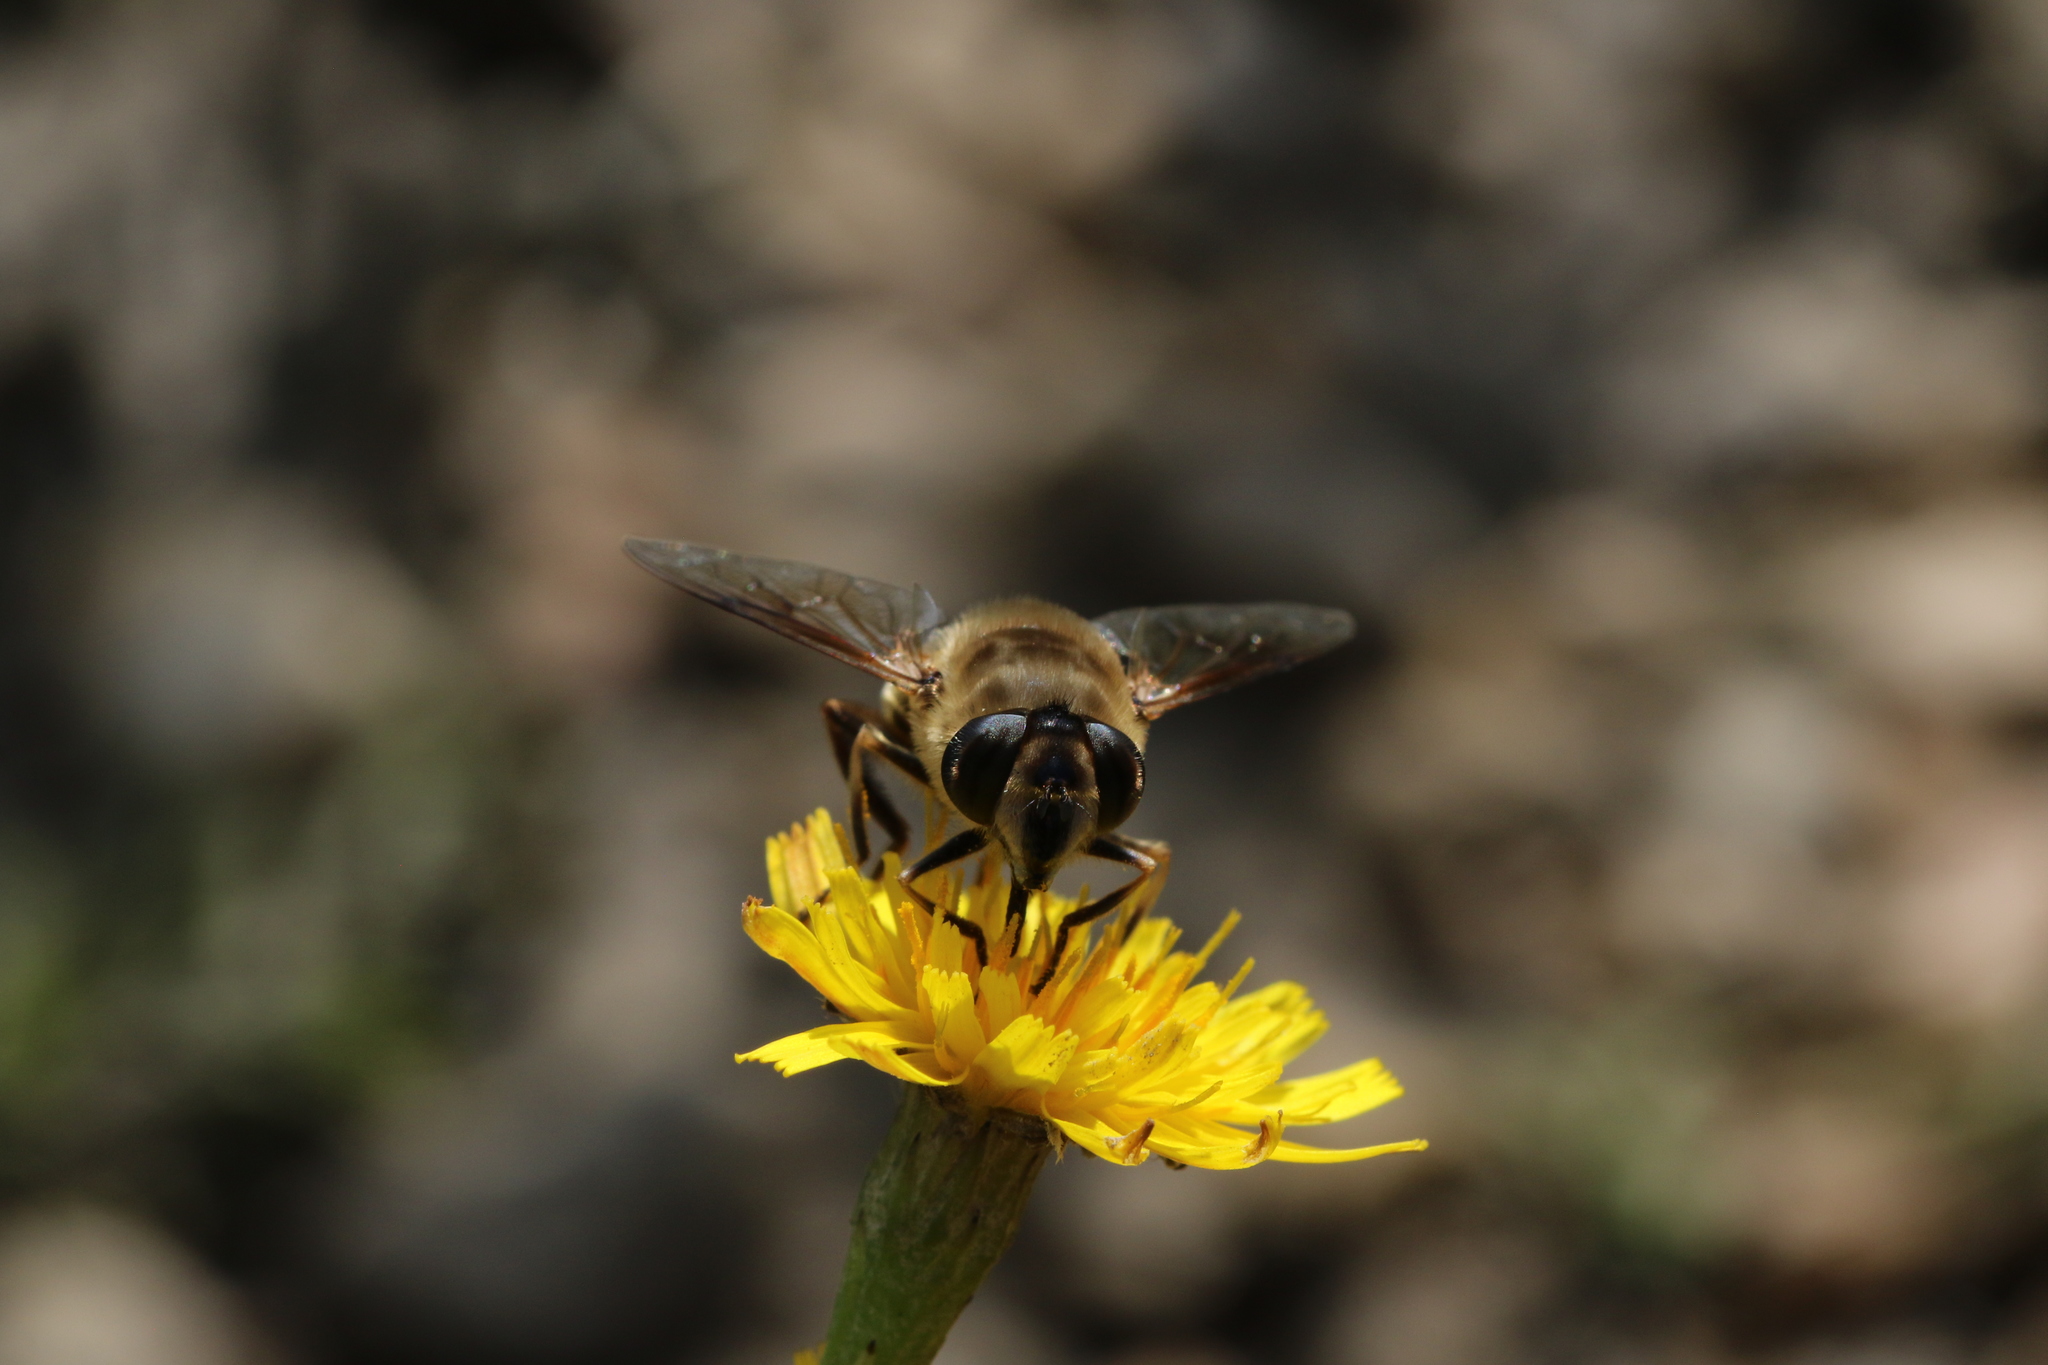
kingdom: Animalia
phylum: Arthropoda
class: Insecta
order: Diptera
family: Syrphidae
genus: Eristalis
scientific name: Eristalis tenax
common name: Drone fly
